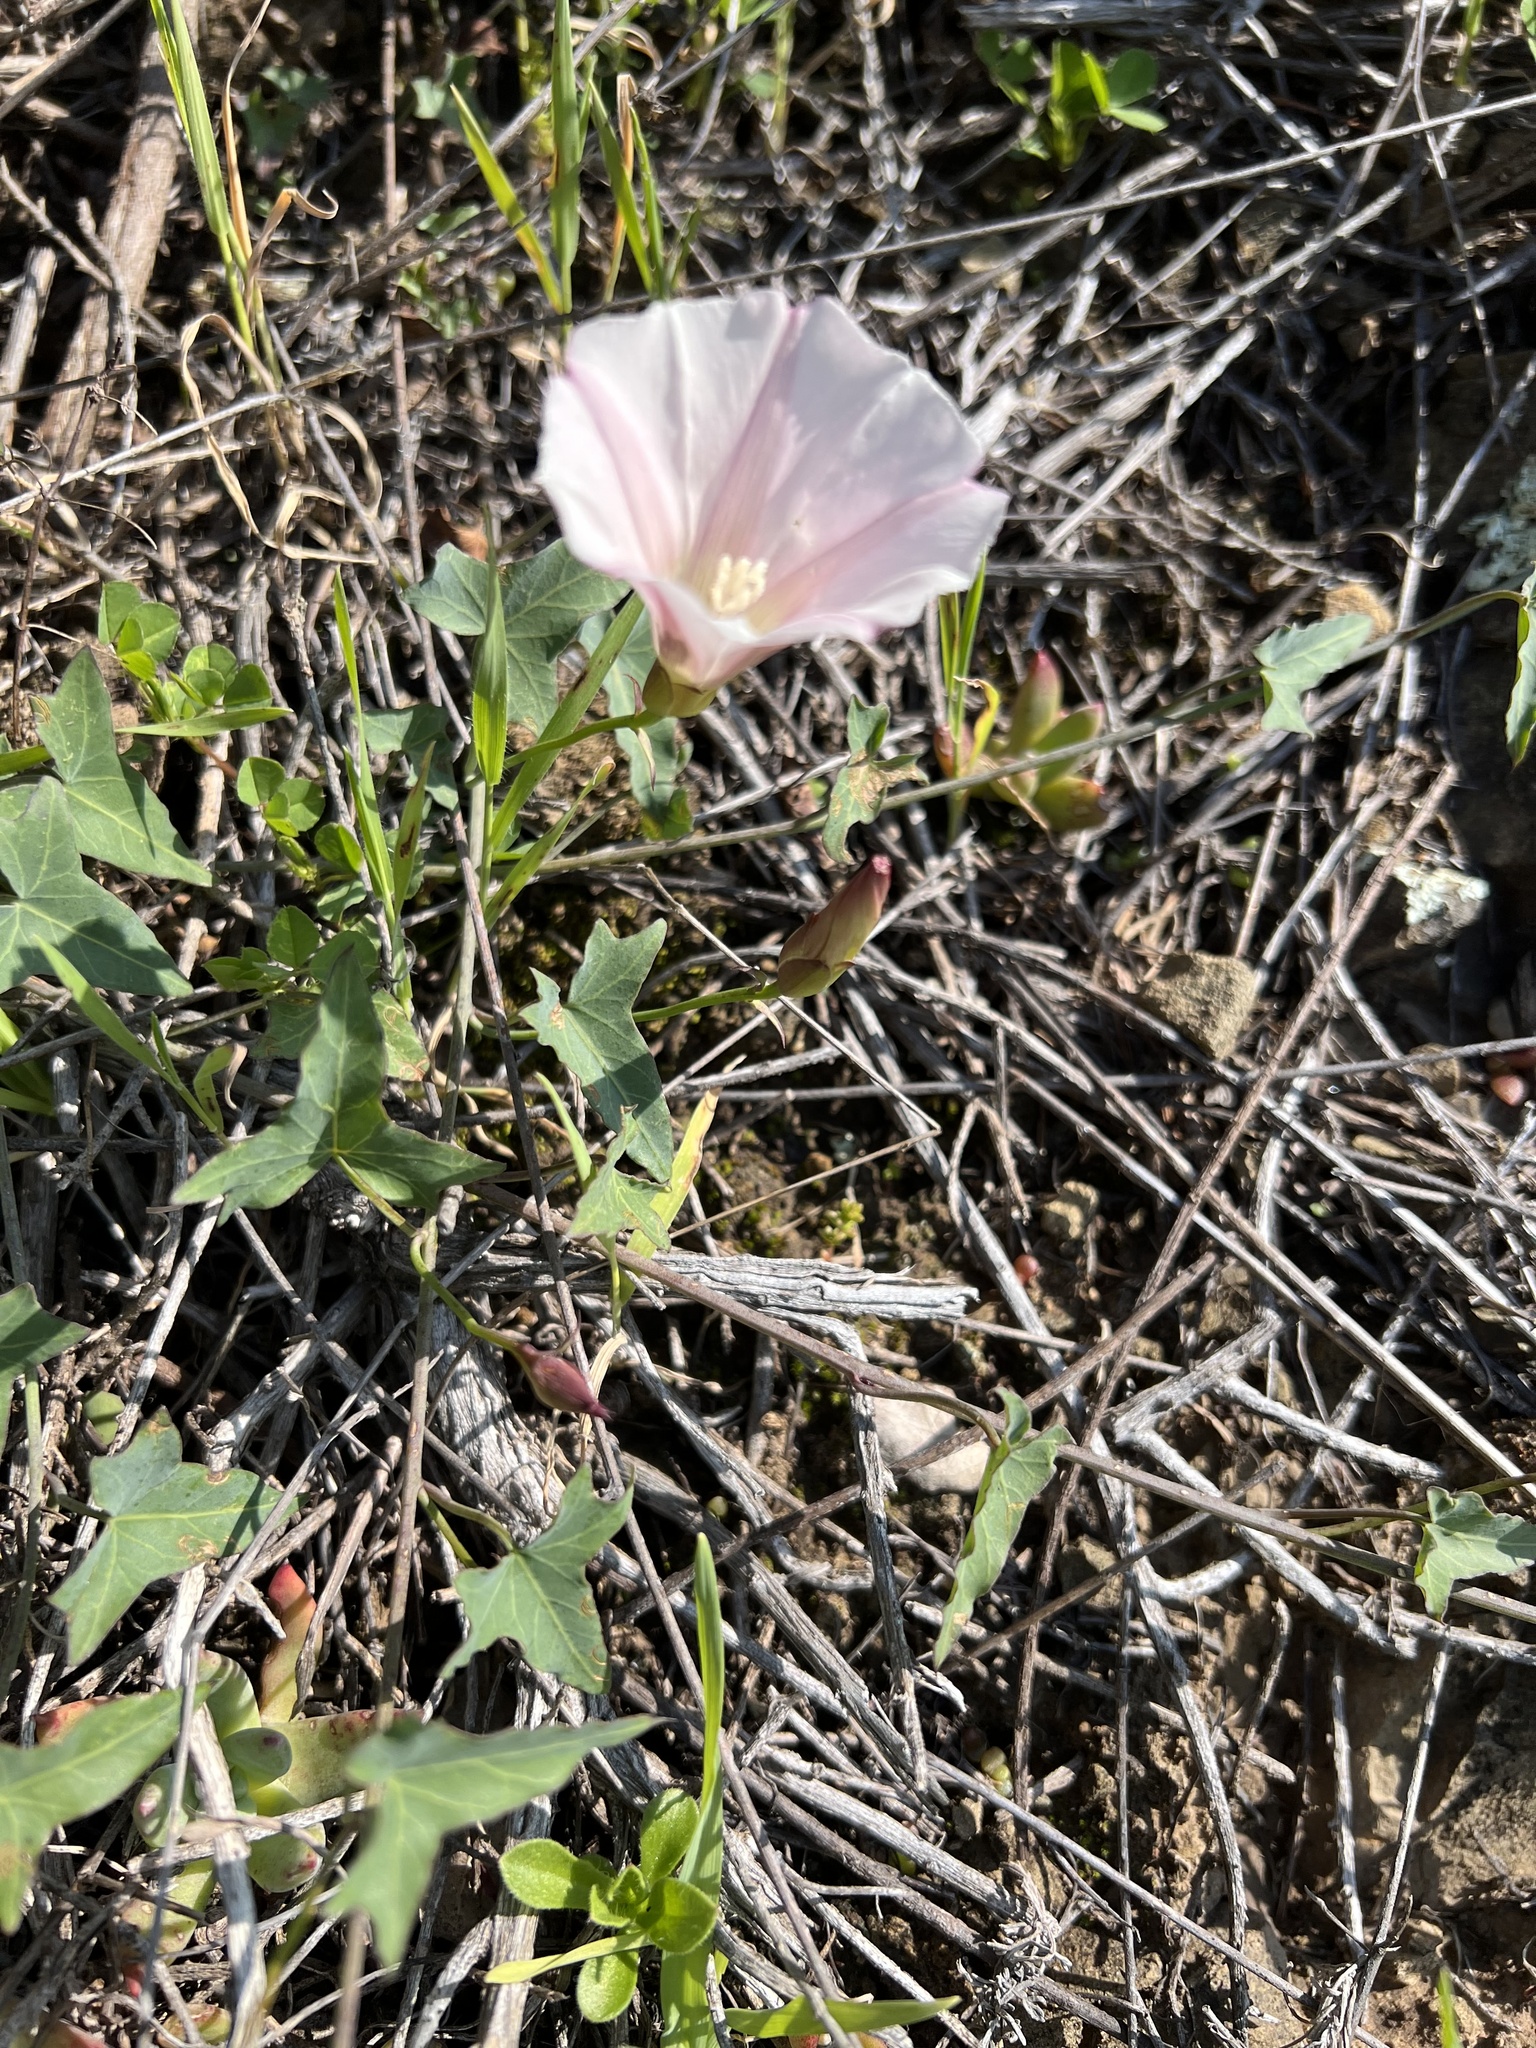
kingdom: Plantae
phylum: Tracheophyta
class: Magnoliopsida
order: Solanales
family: Convolvulaceae
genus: Calystegia
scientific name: Calystegia purpurata
